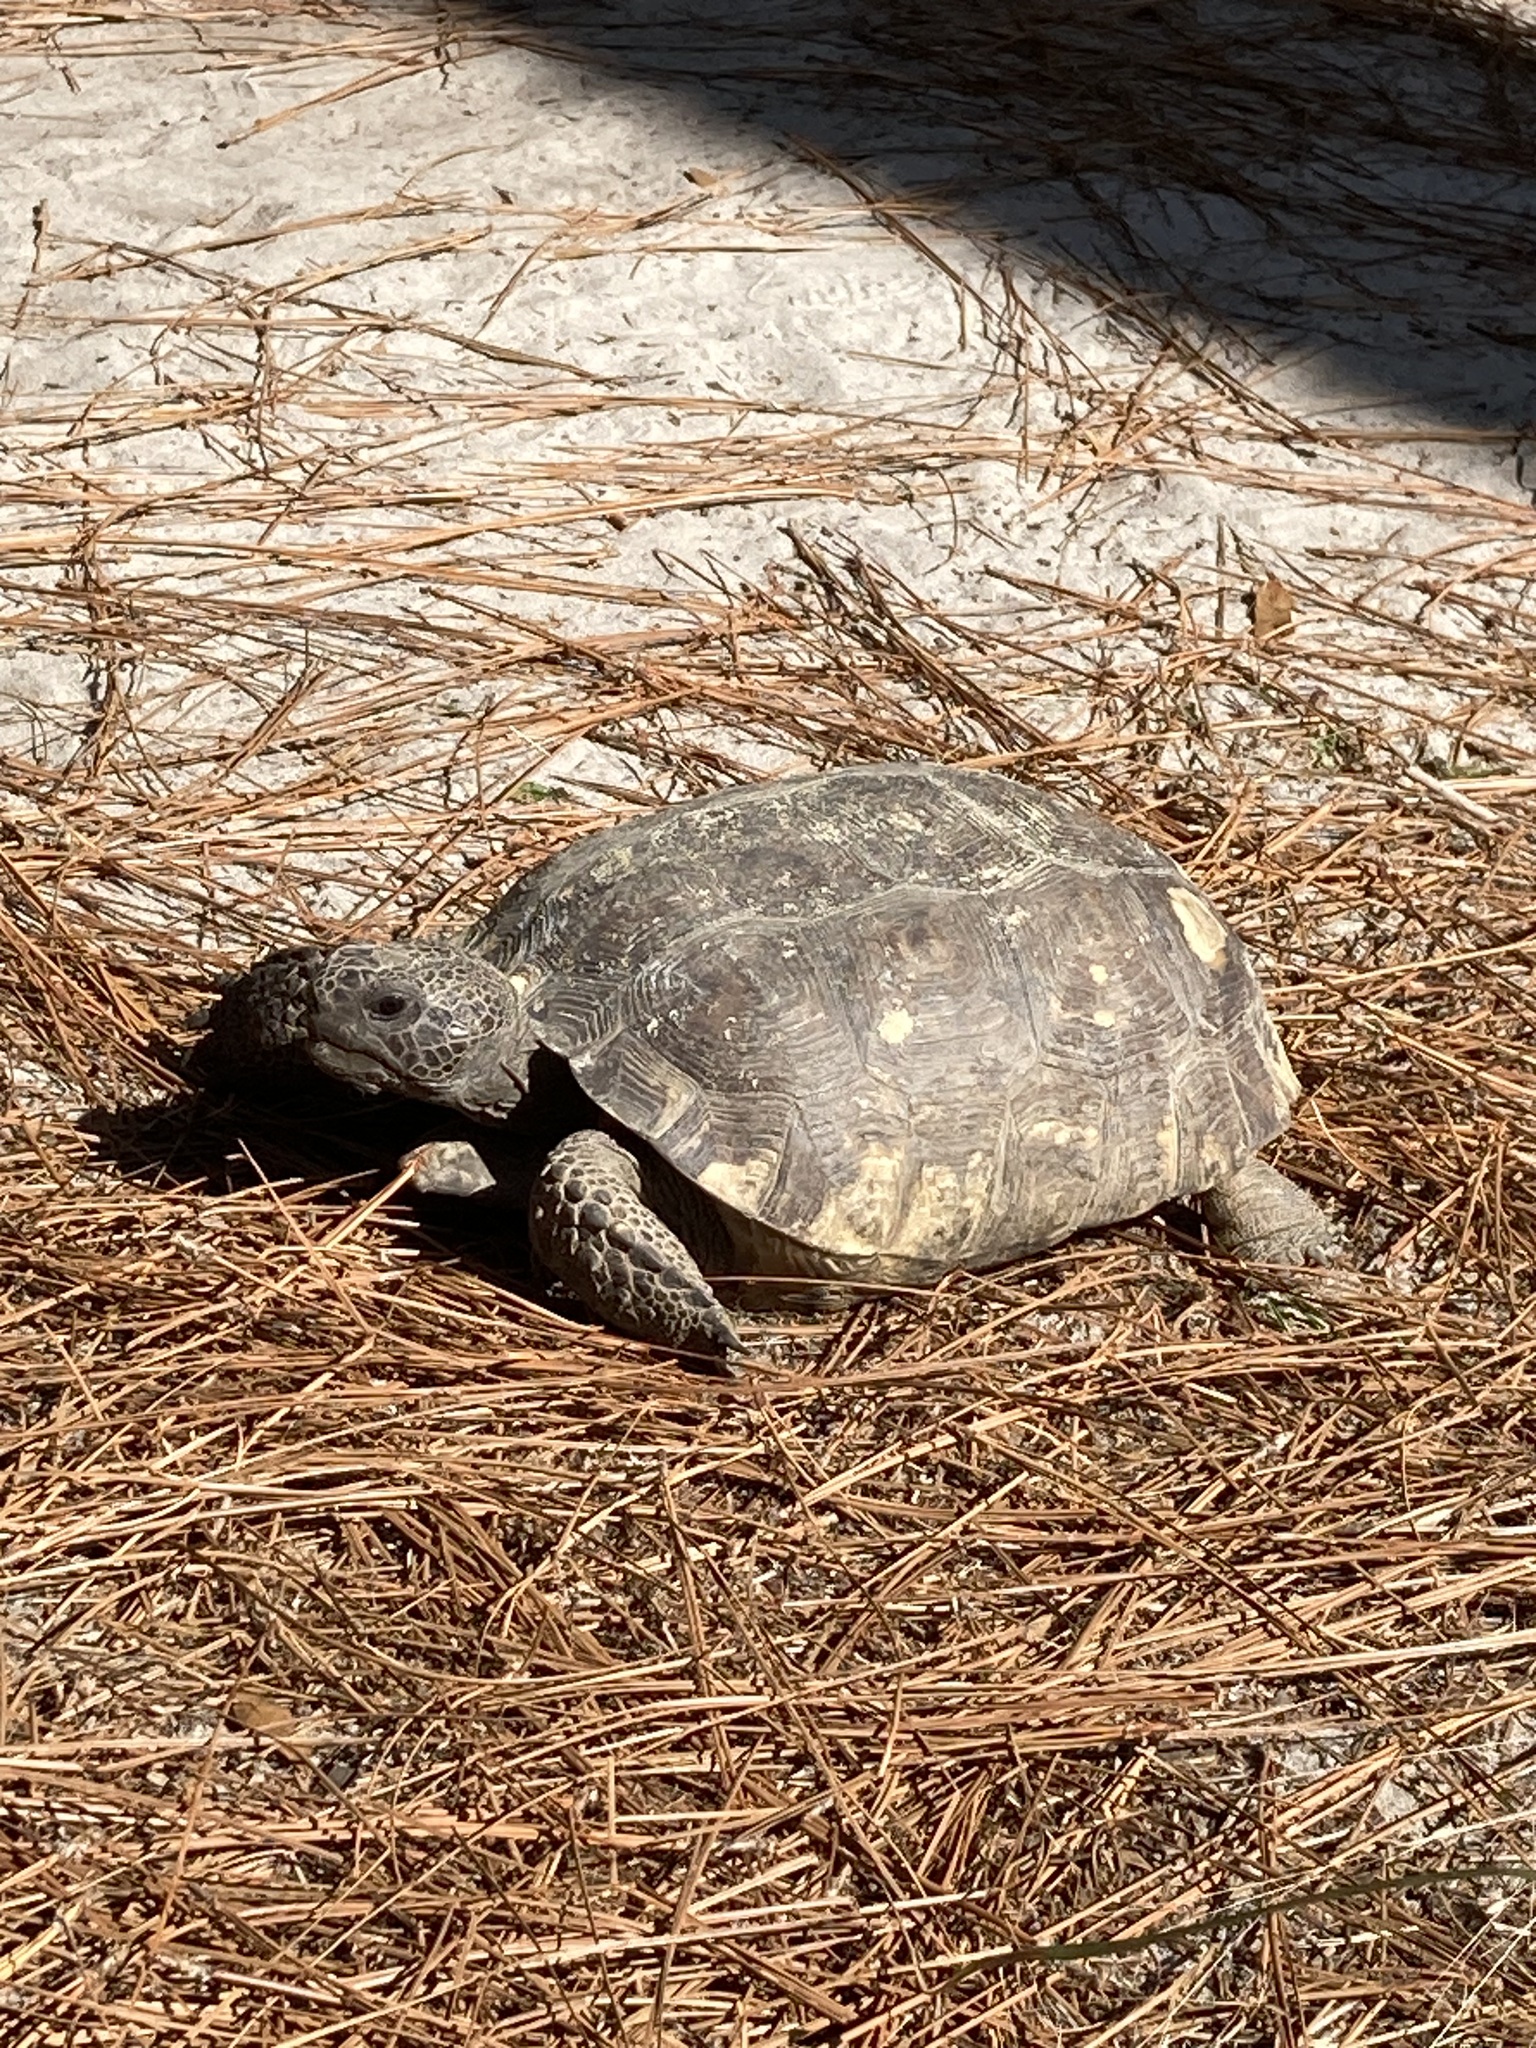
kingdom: Animalia
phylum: Chordata
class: Testudines
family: Testudinidae
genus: Gopherus
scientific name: Gopherus polyphemus
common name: Florida gopher tortoise
